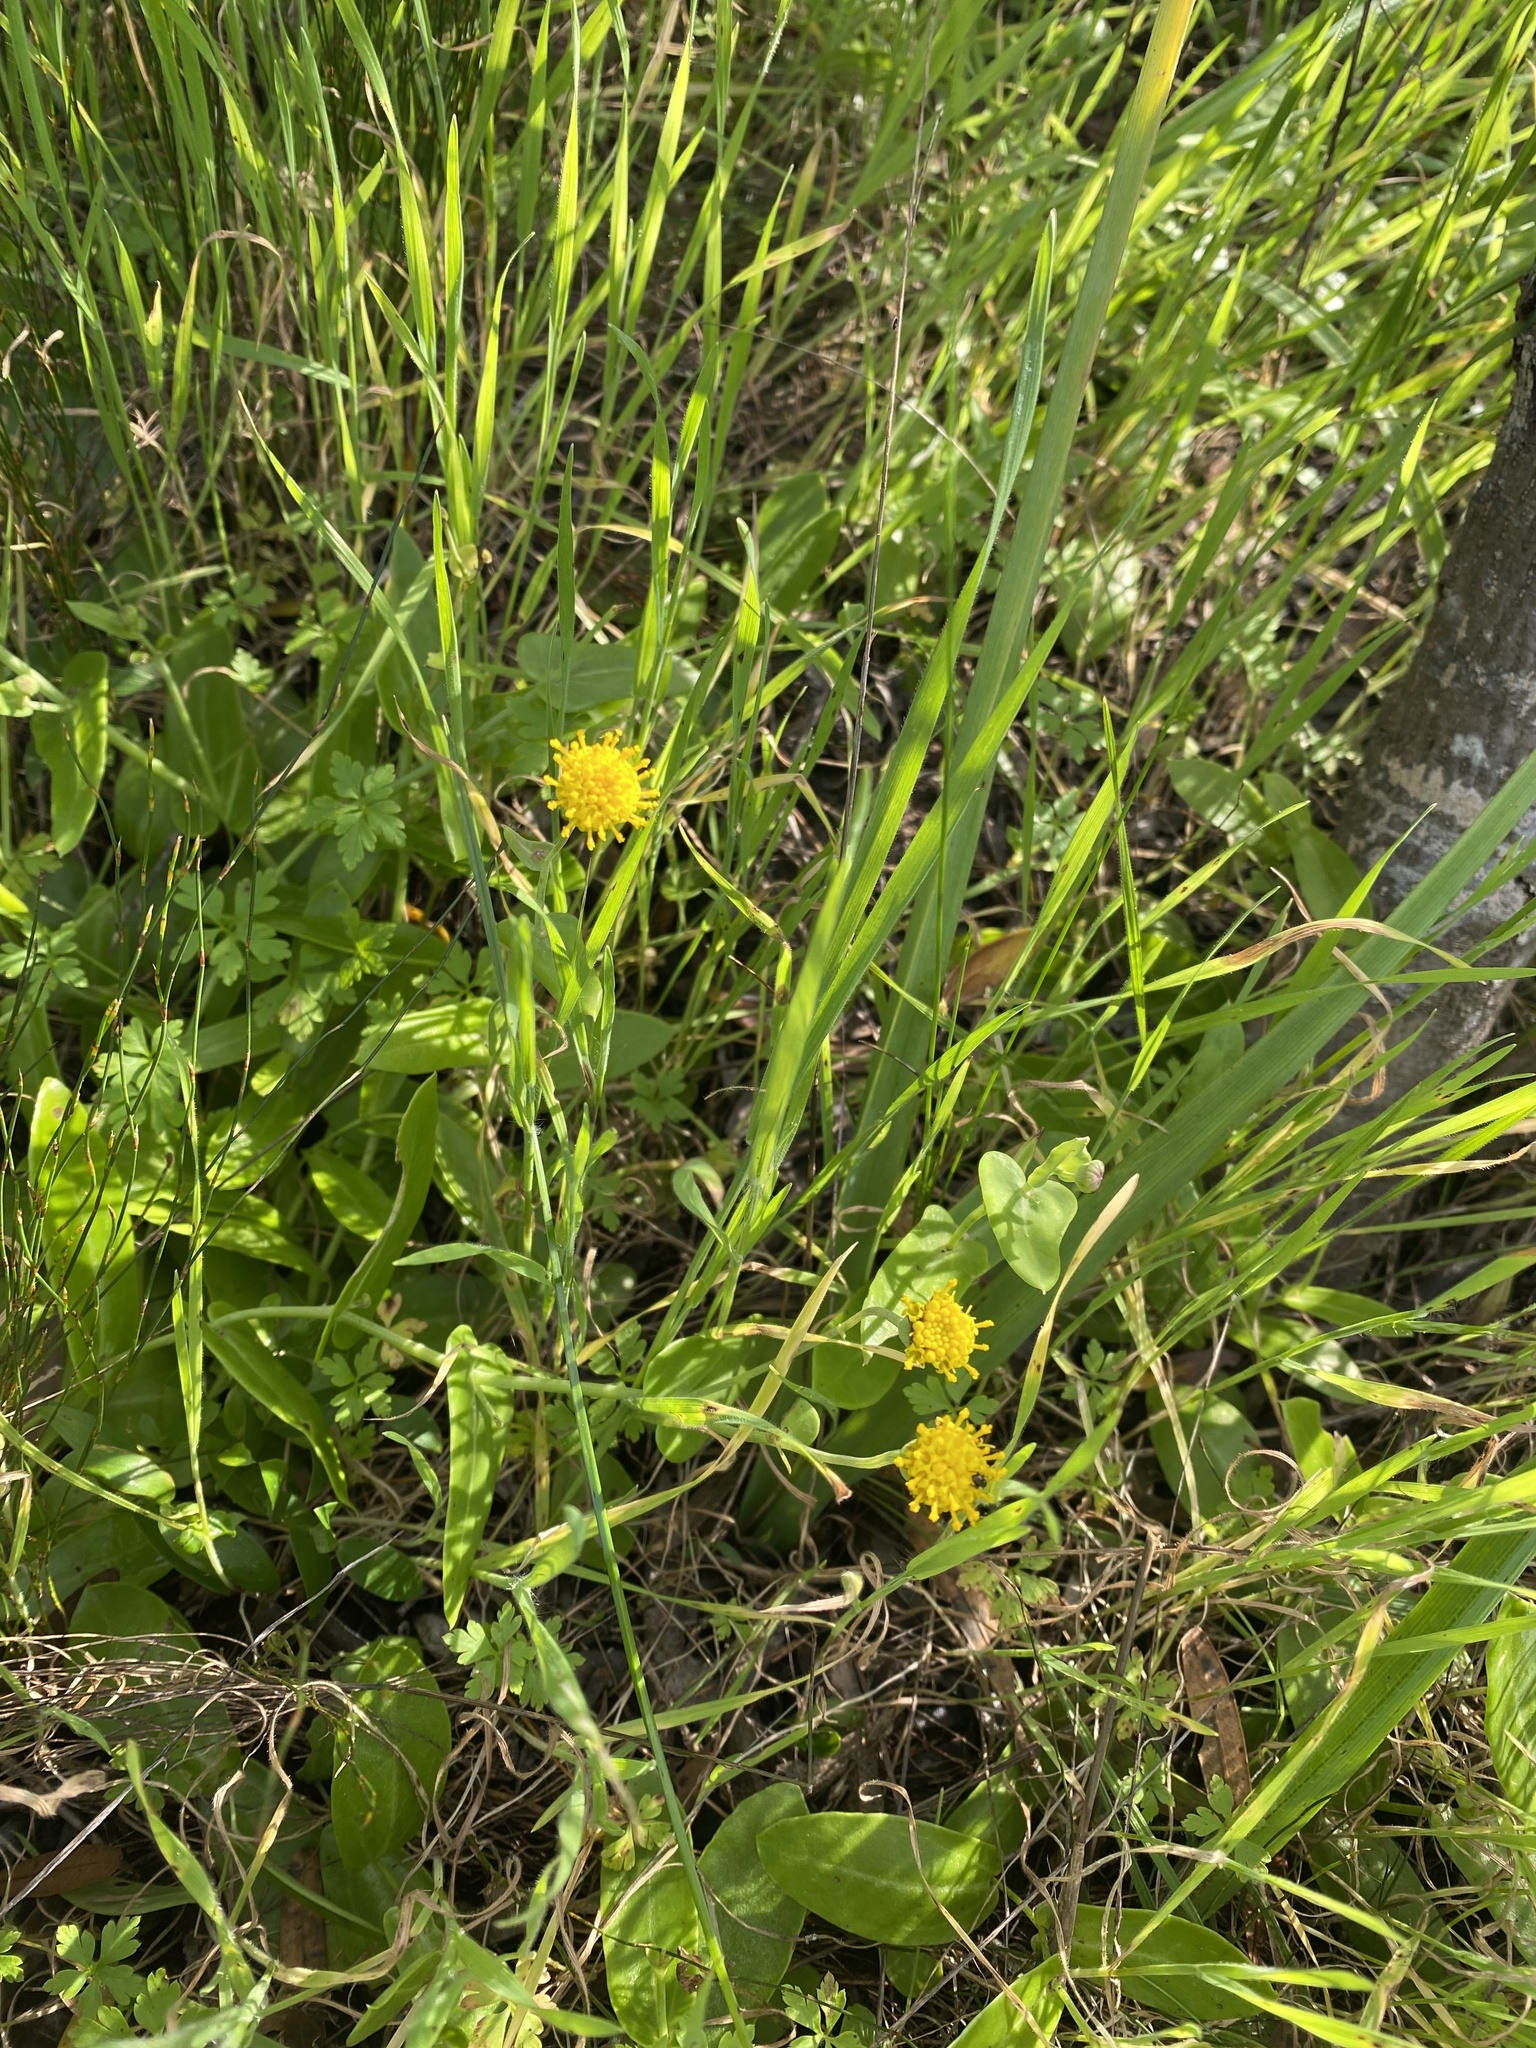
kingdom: Plantae
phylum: Tracheophyta
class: Magnoliopsida
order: Asterales
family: Asteraceae
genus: Othonna
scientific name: Othonna undulosa
